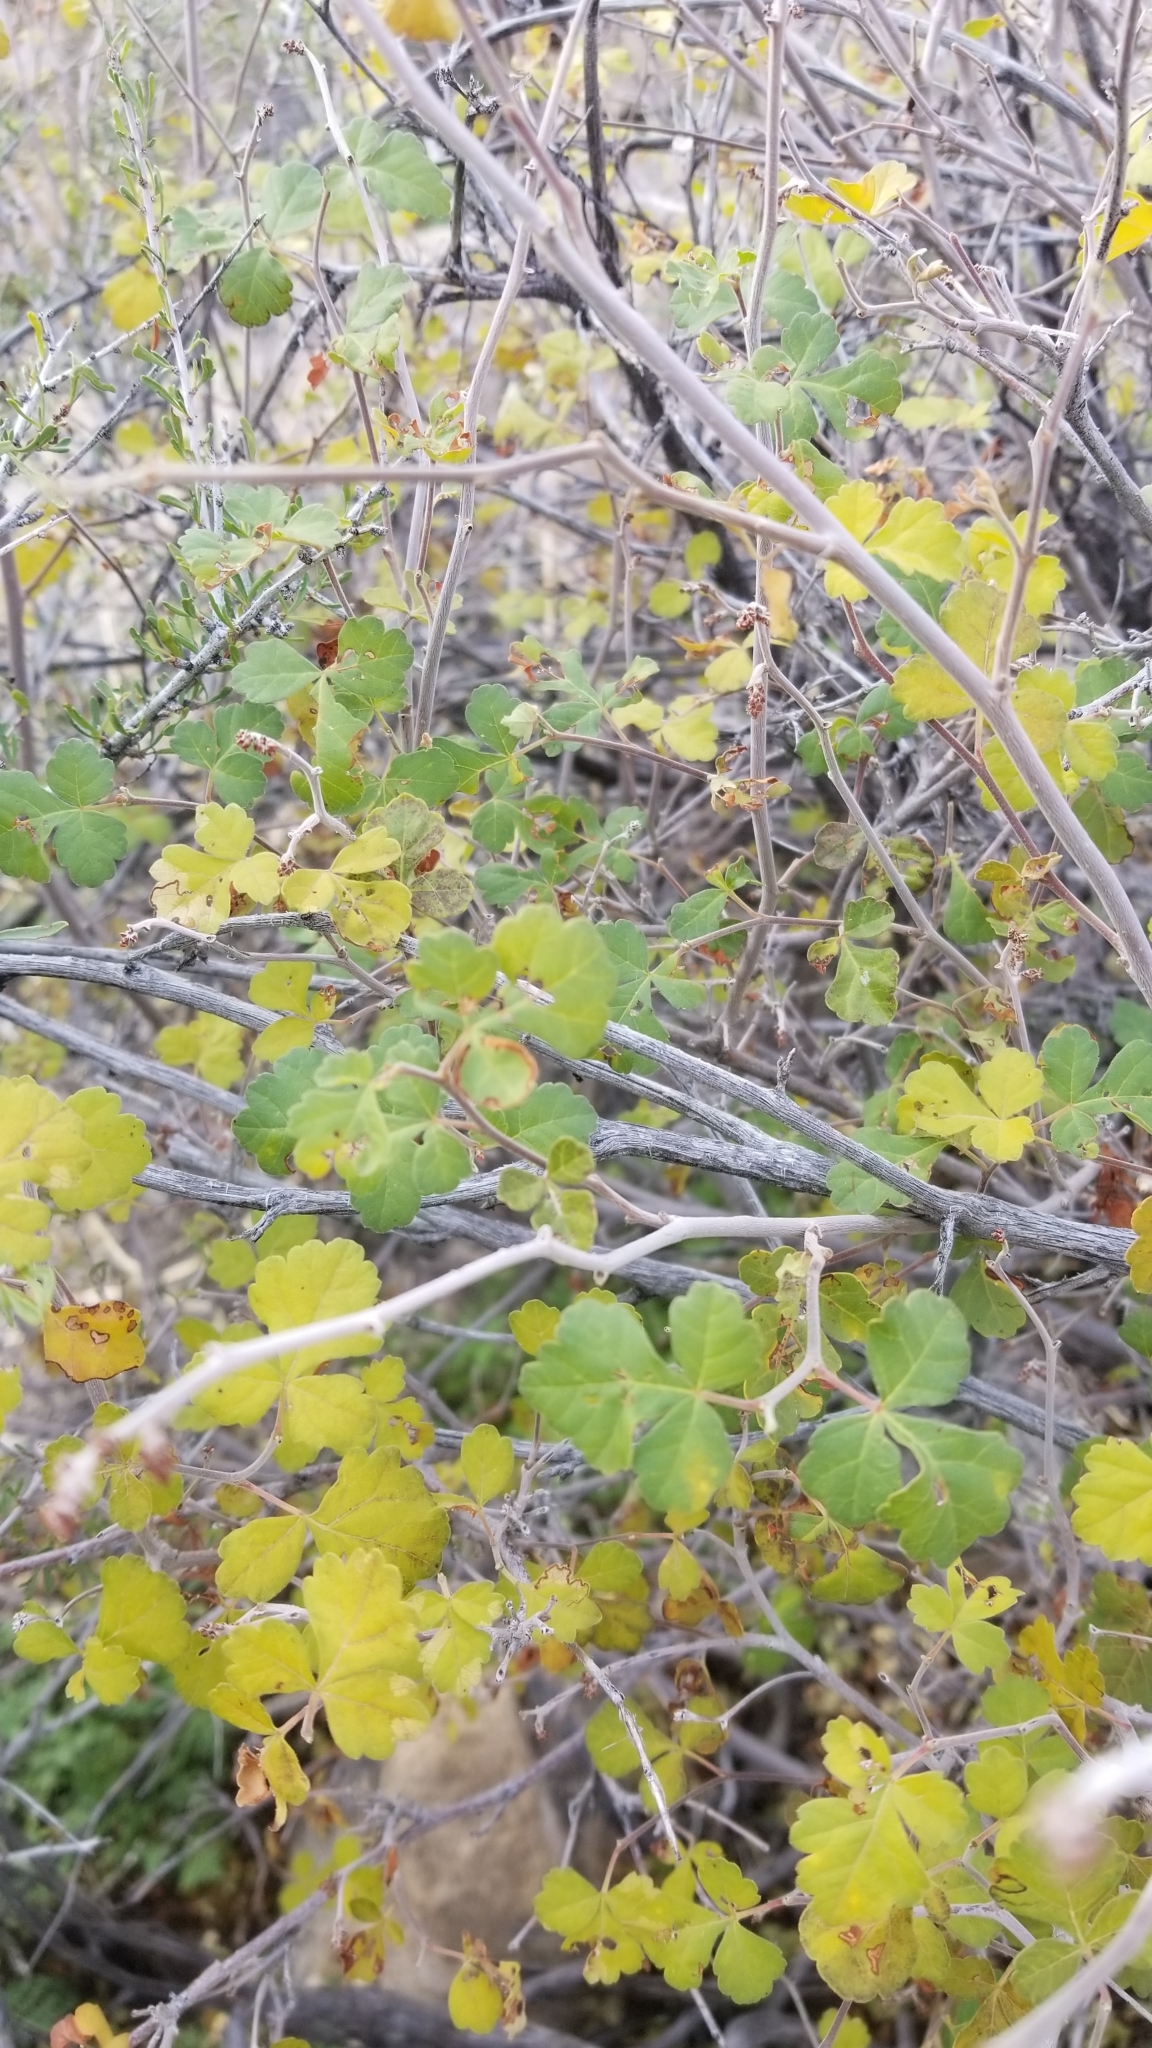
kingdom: Plantae
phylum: Tracheophyta
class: Magnoliopsida
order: Sapindales
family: Anacardiaceae
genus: Rhus
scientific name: Rhus aromatica
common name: Aromatic sumac
